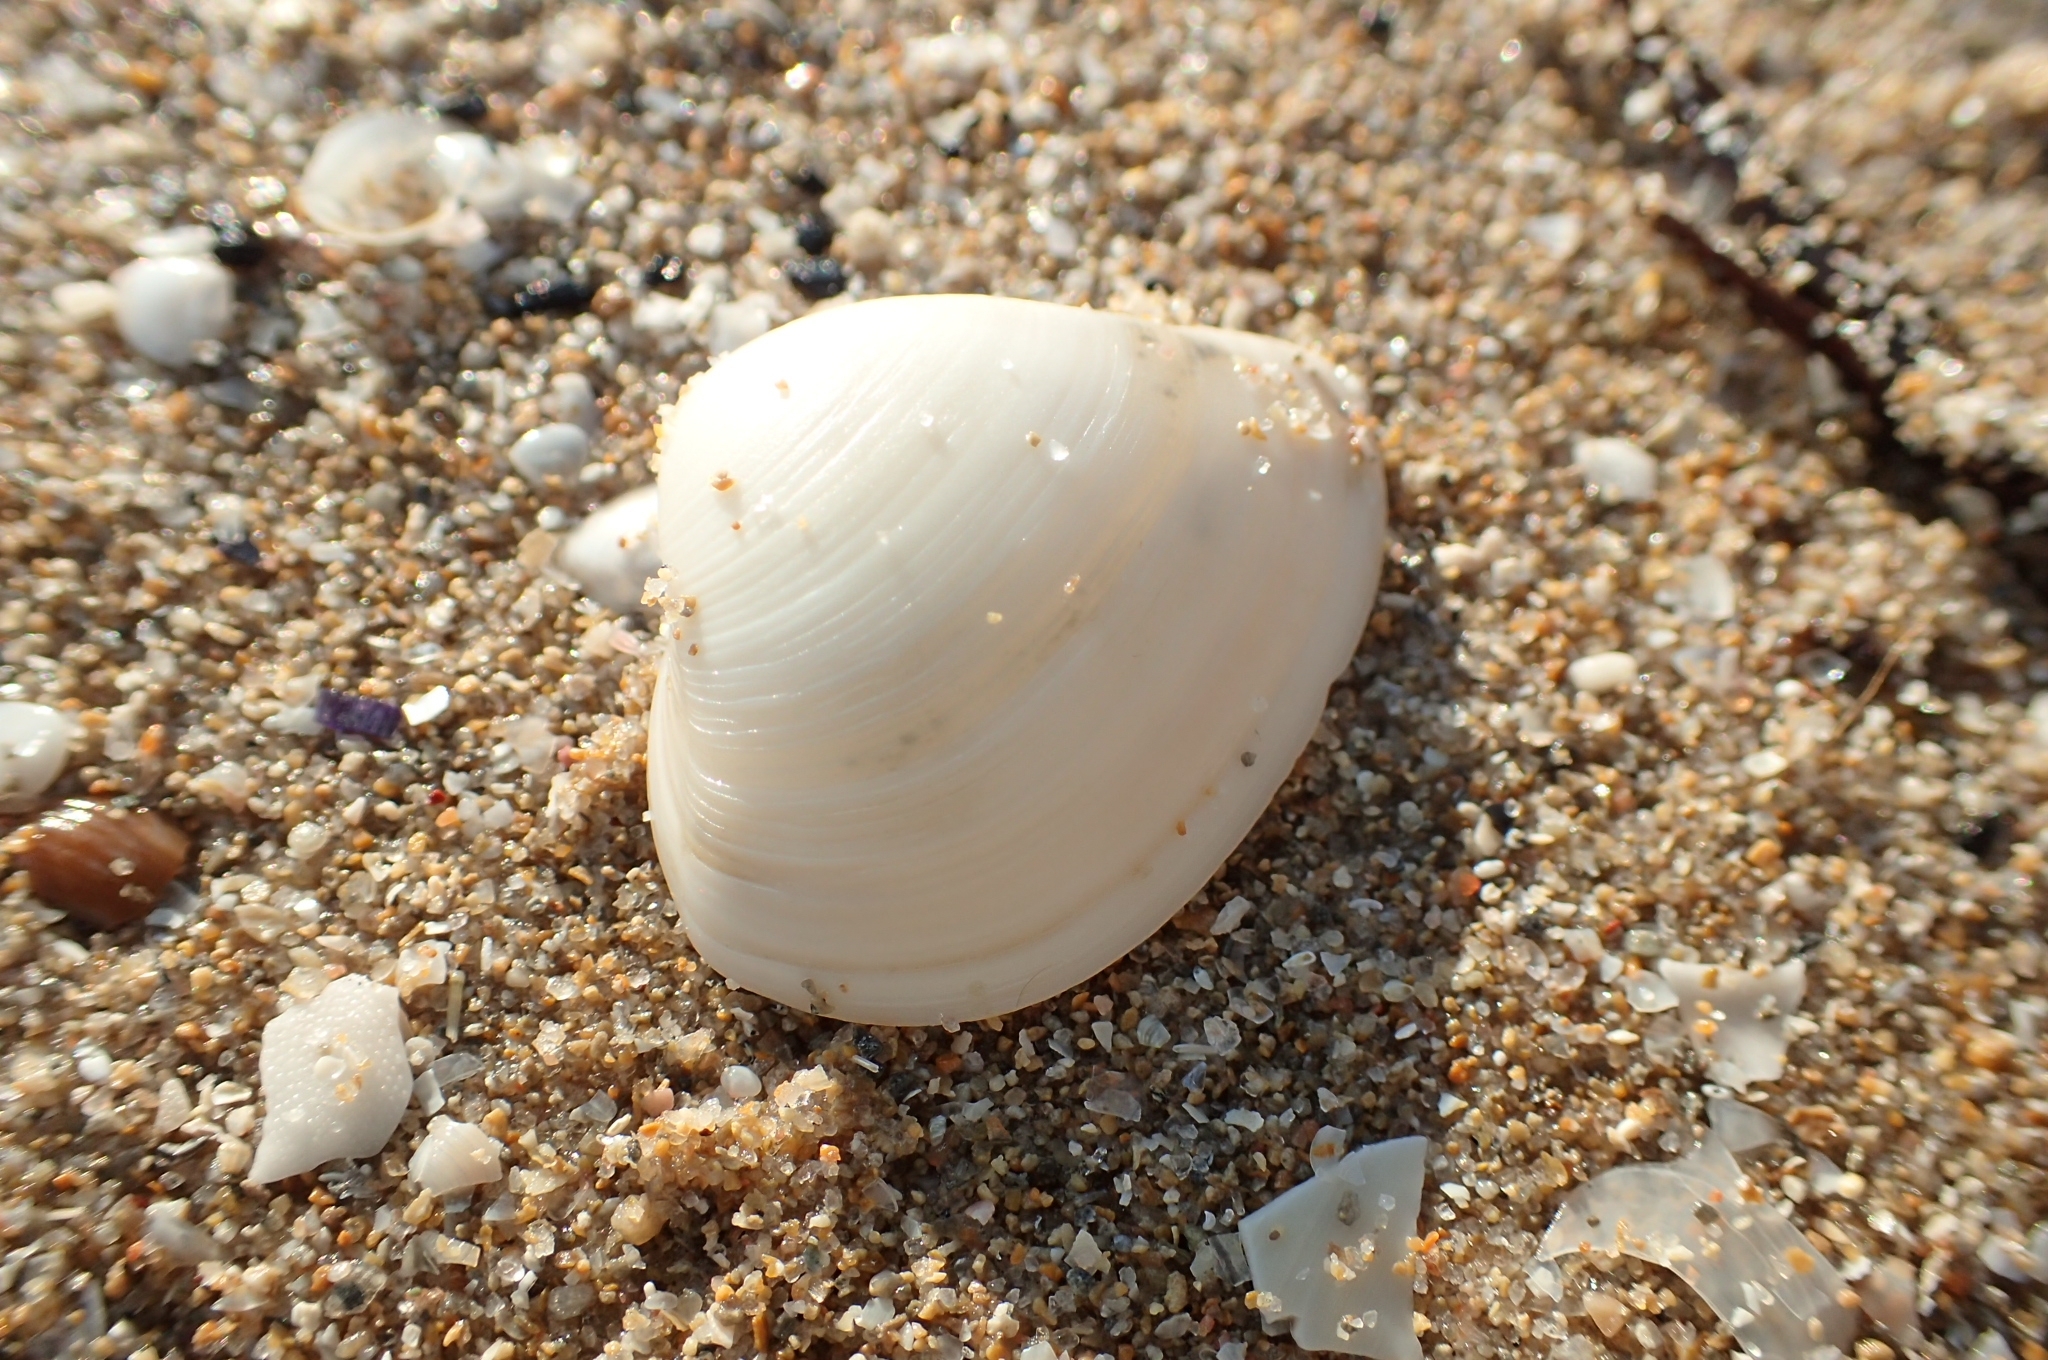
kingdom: Animalia
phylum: Mollusca
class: Bivalvia
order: Venerida
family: Mactridae
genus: Spisula
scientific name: Spisula subtruncata
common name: Cut trough shell
